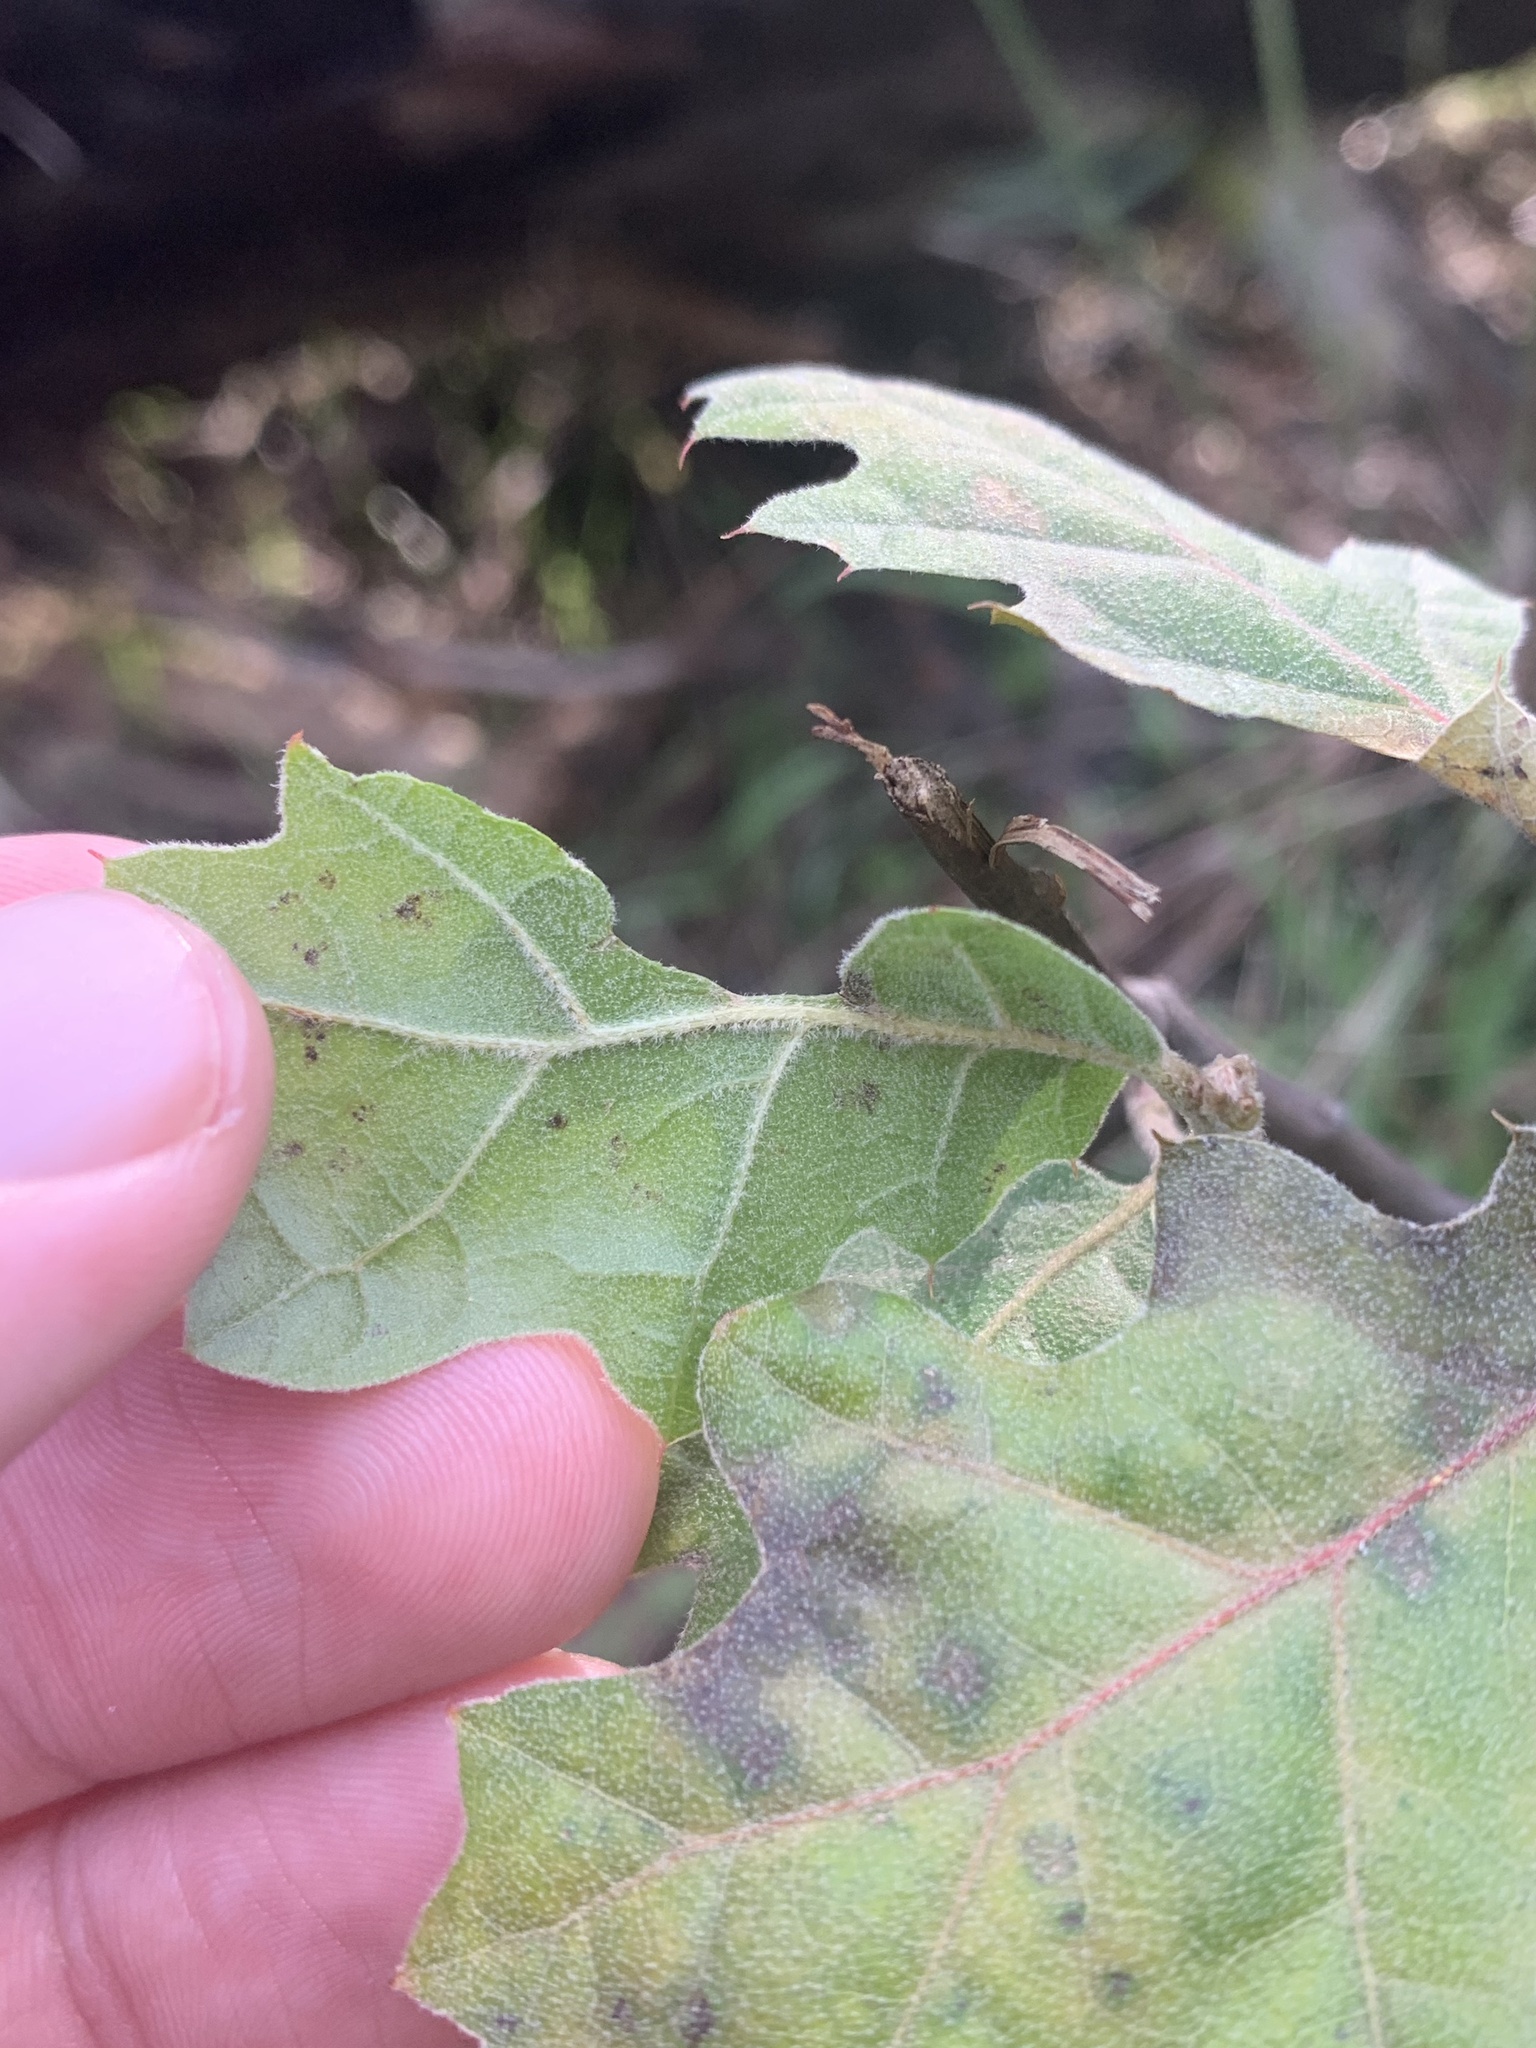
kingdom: Plantae
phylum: Tracheophyta
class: Magnoliopsida
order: Fagales
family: Fagaceae
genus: Quercus
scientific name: Quercus morehus
